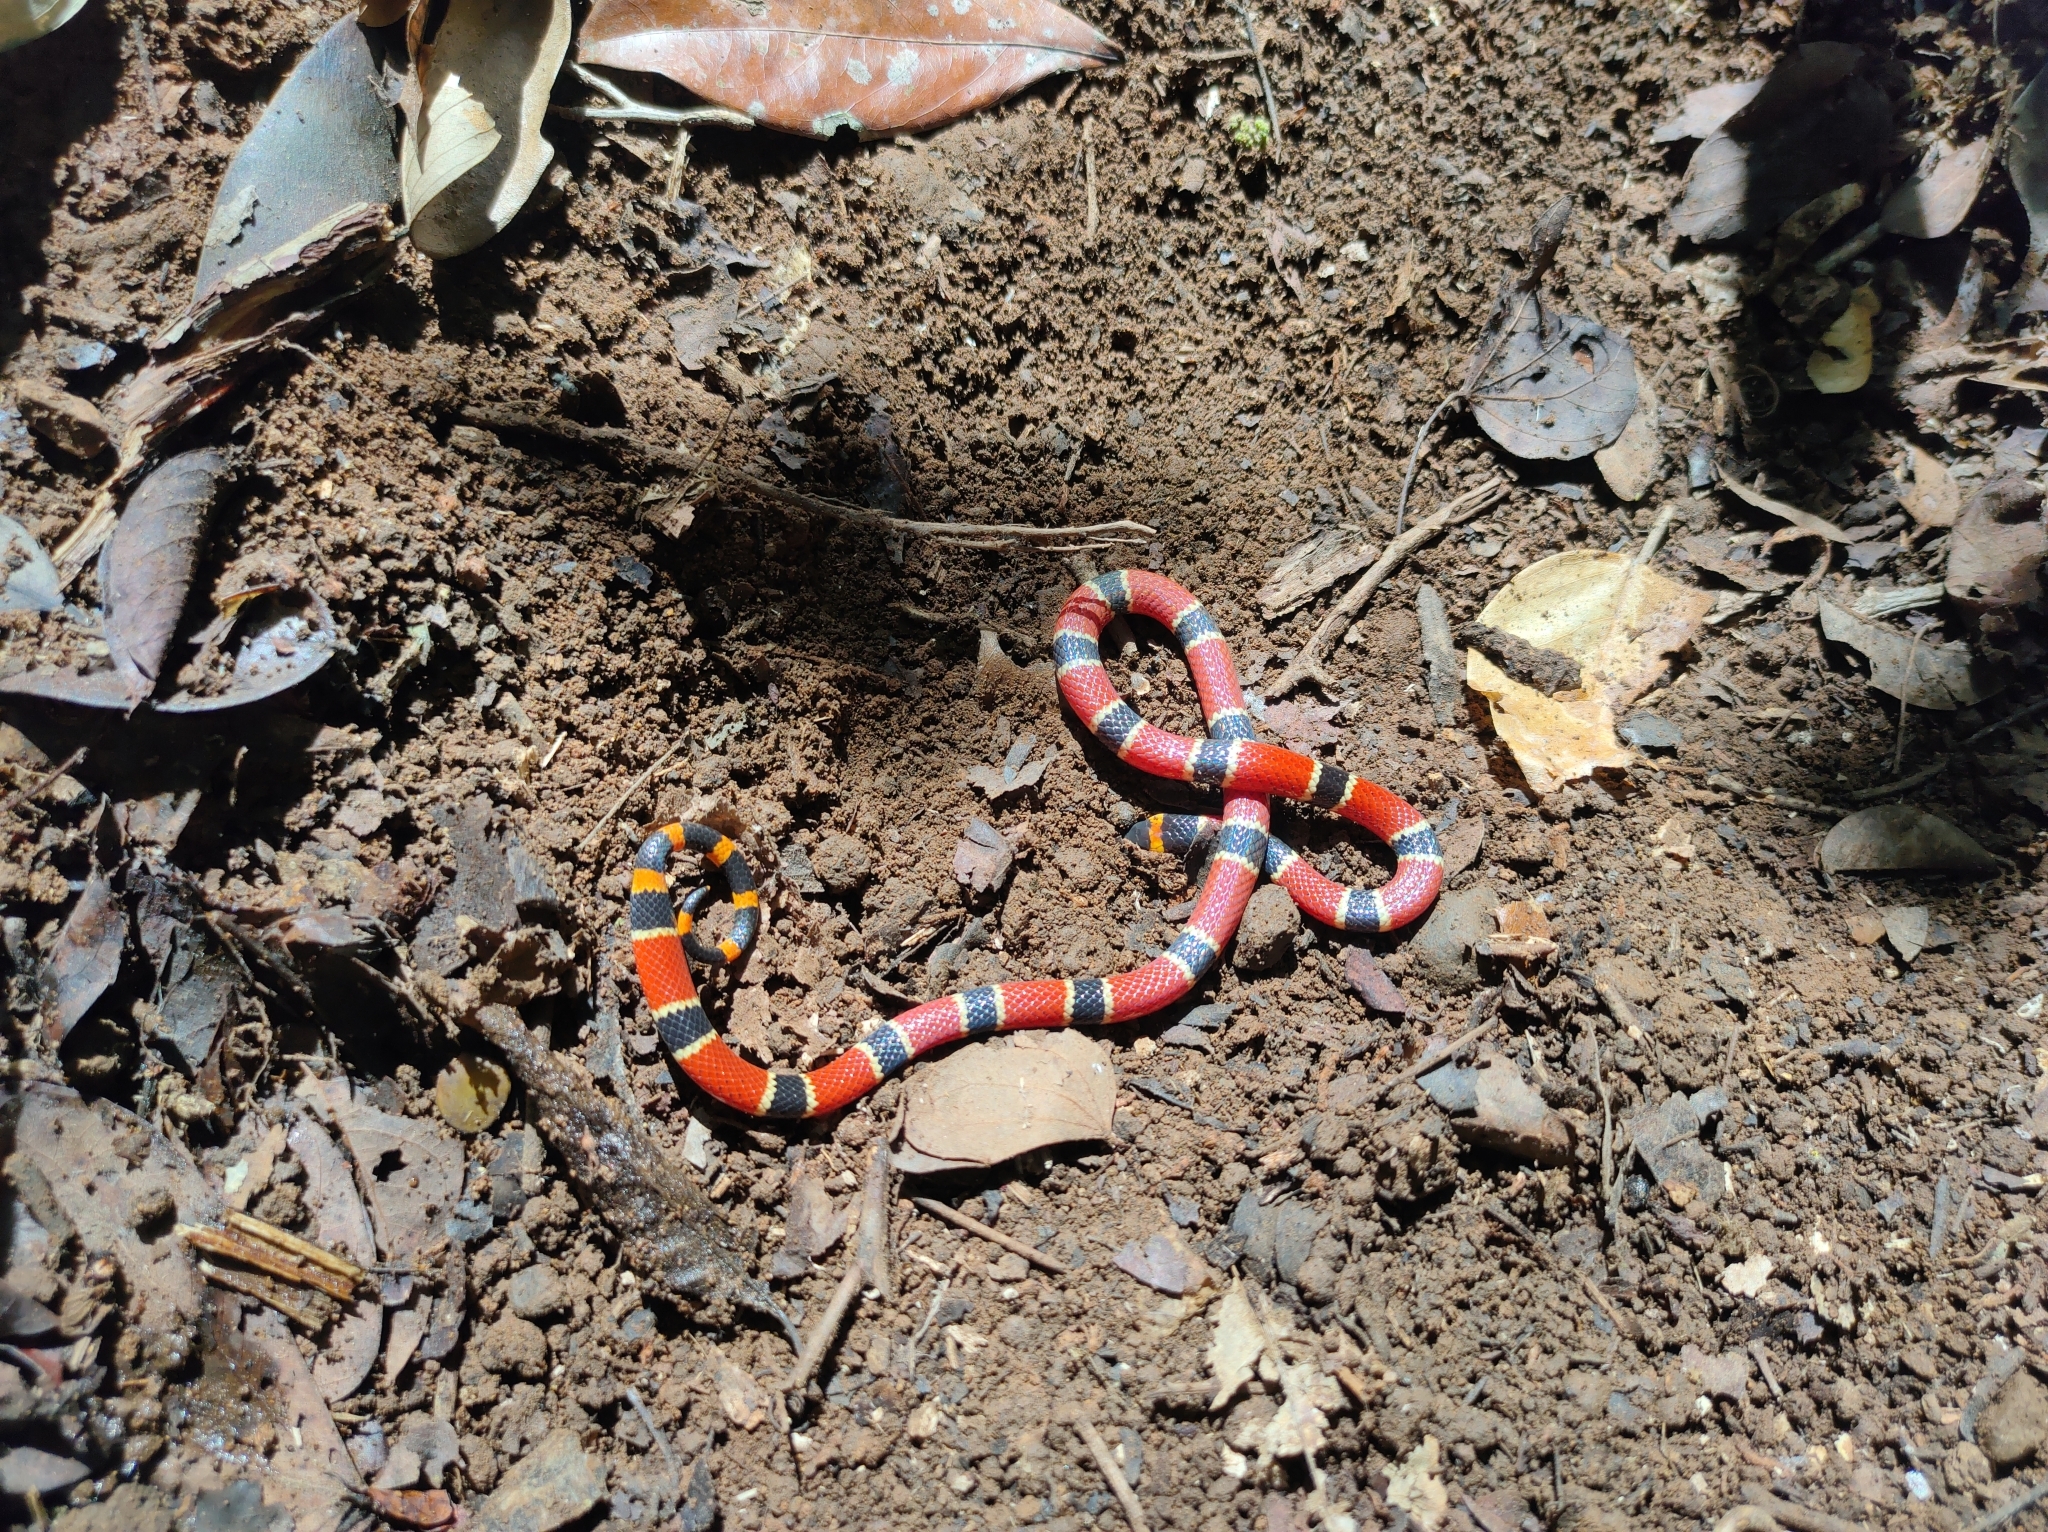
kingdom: Animalia
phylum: Chordata
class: Squamata
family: Elapidae
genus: Micrurus
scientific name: Micrurus nigrocinctus
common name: Babaspul [babaspul]
